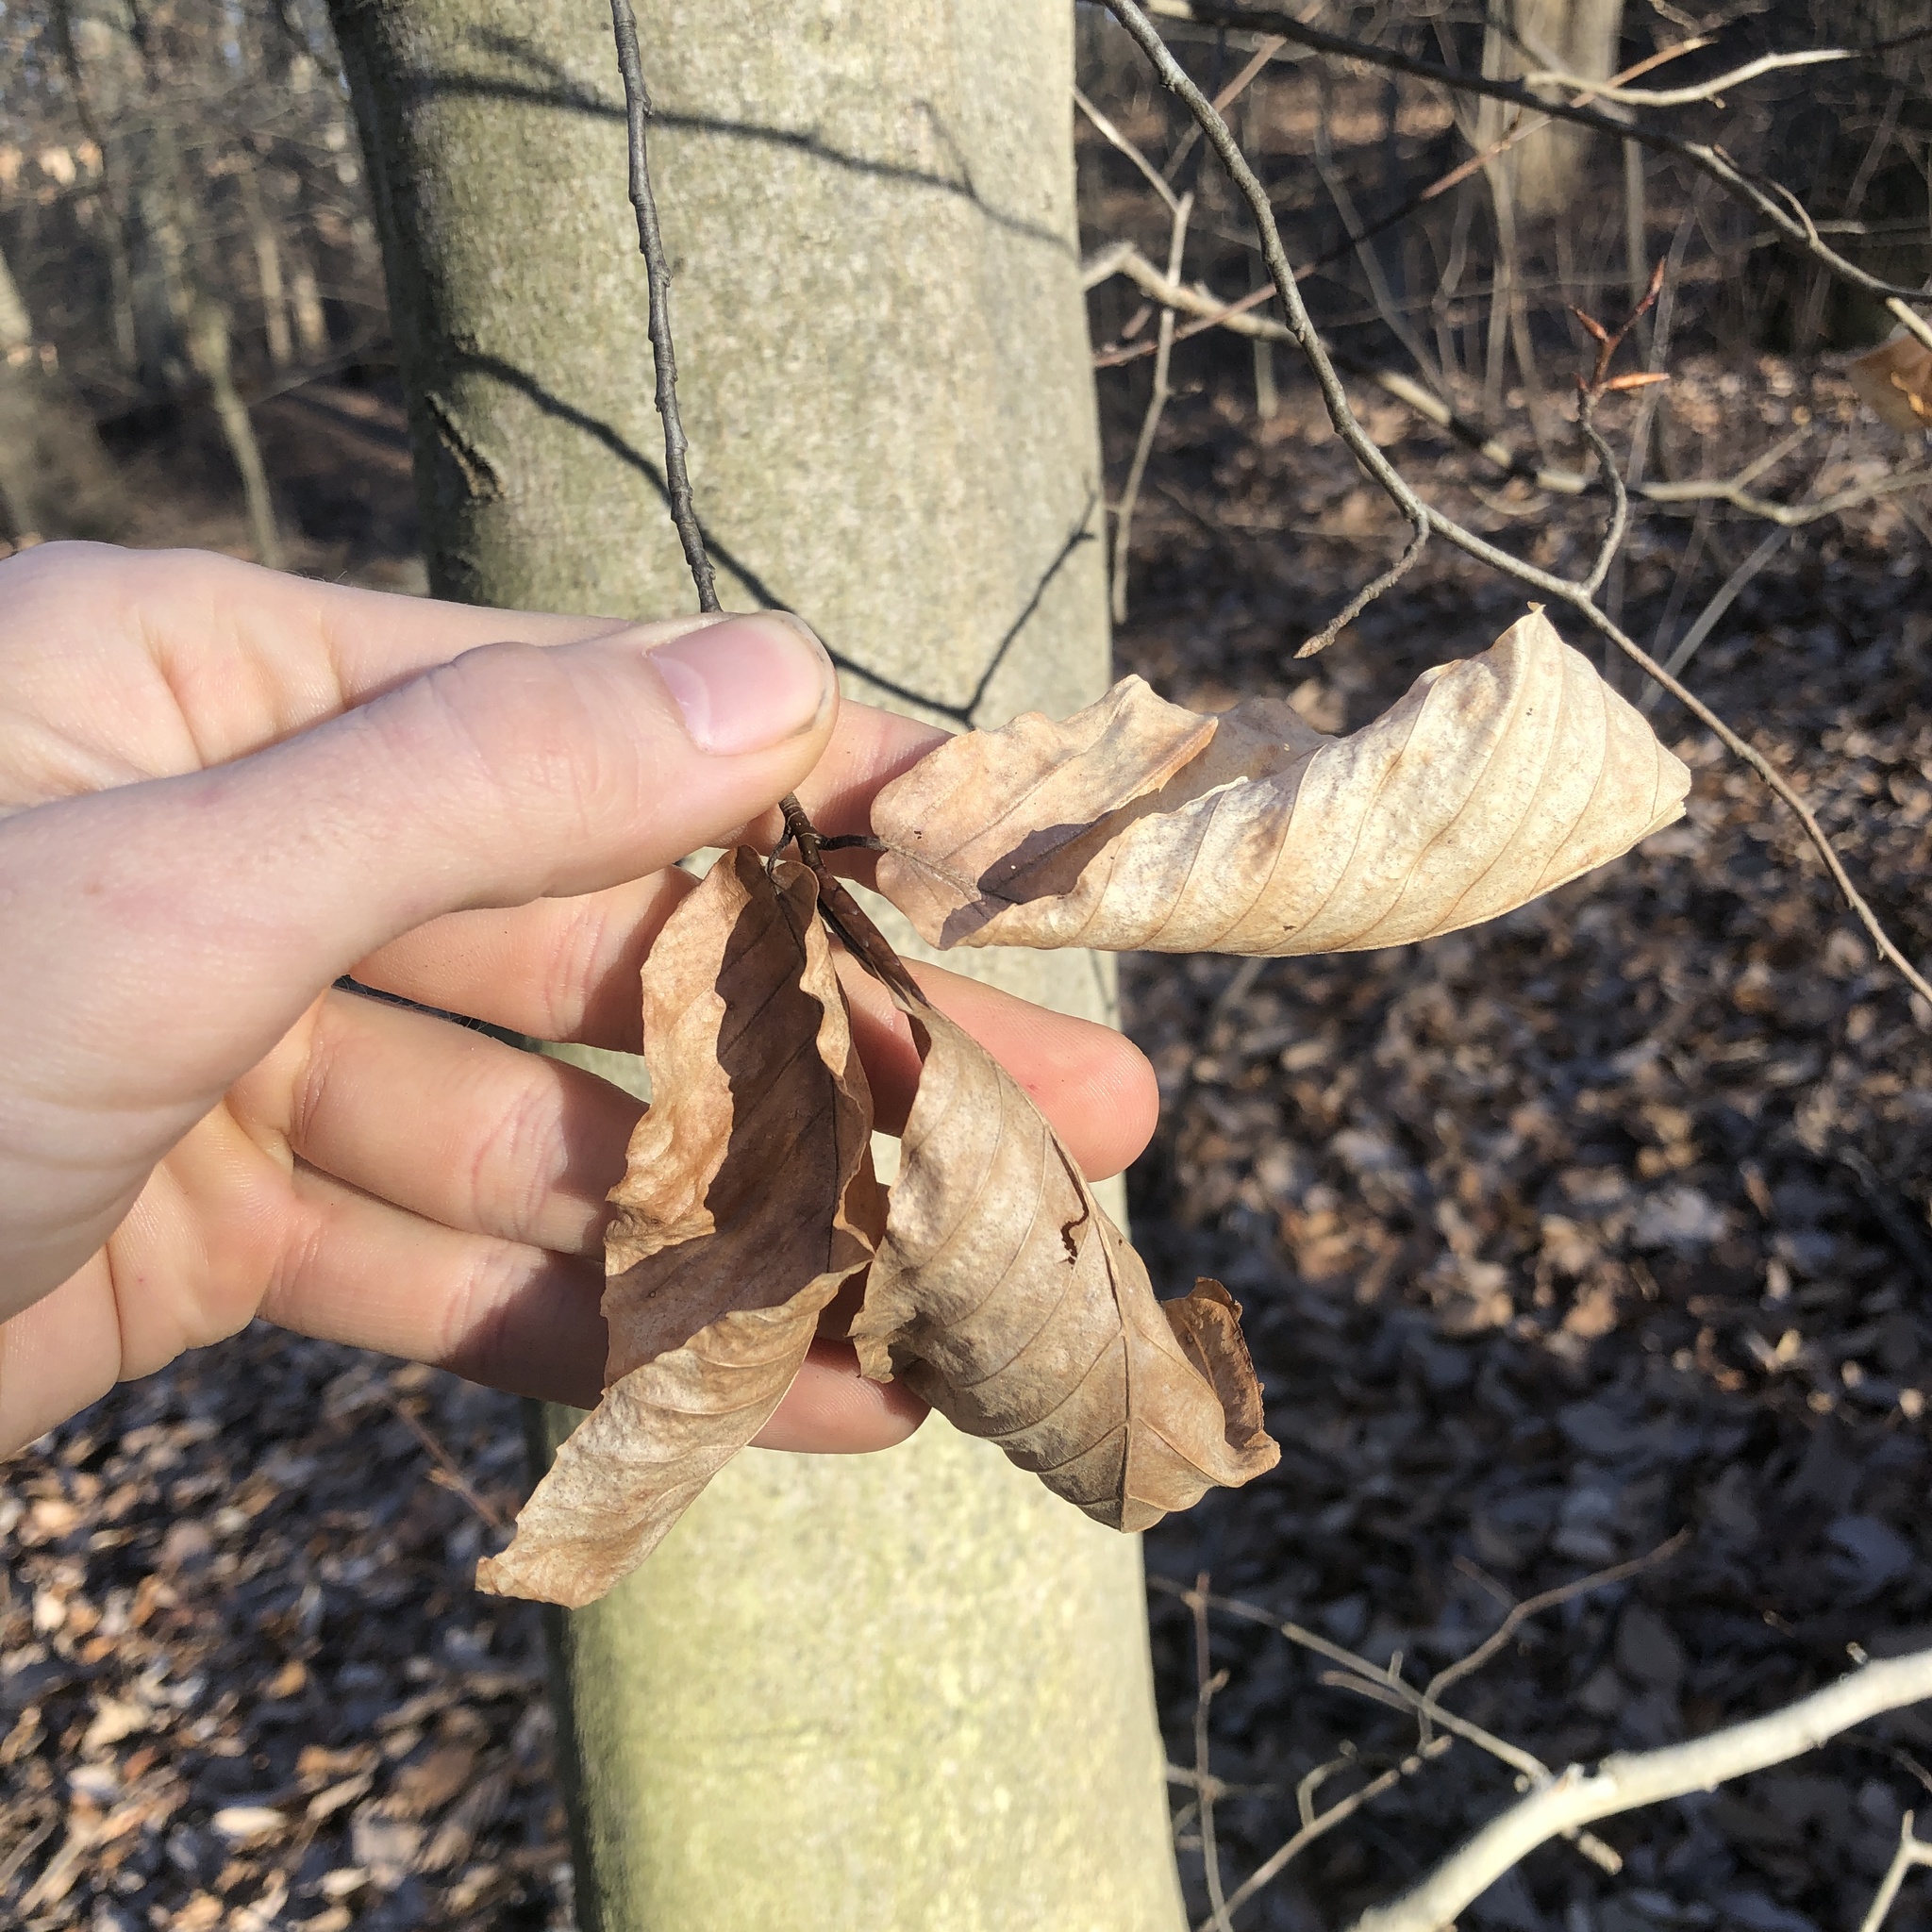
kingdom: Plantae
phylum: Tracheophyta
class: Magnoliopsida
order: Fagales
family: Fagaceae
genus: Fagus
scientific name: Fagus grandifolia
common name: American beech
